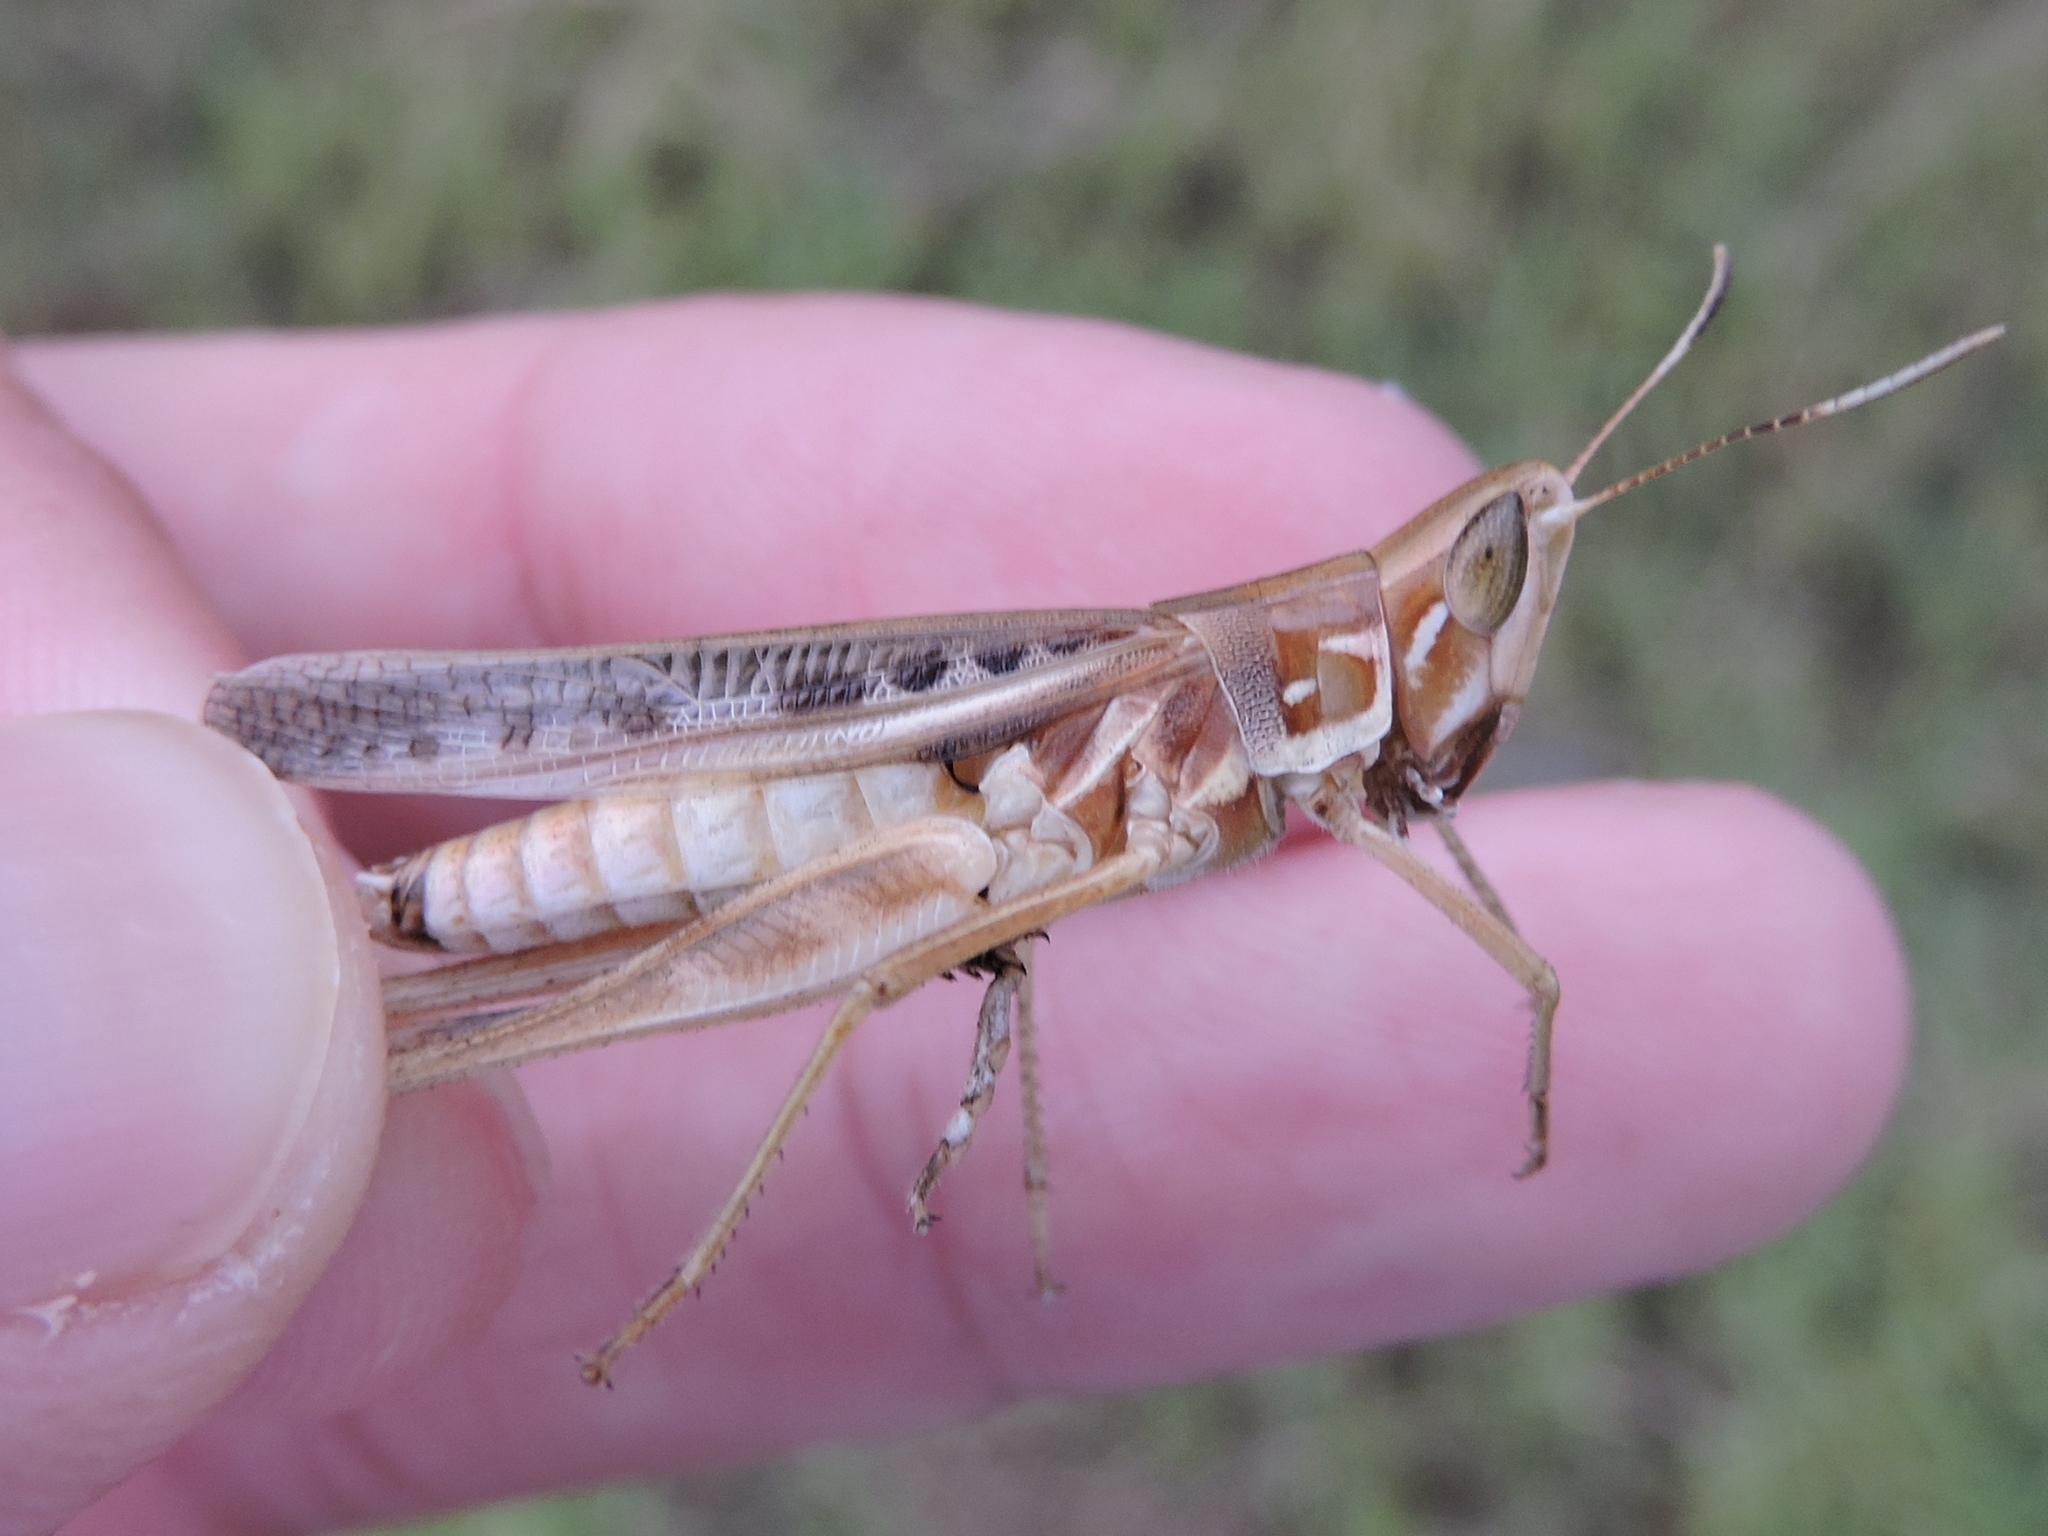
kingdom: Animalia
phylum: Arthropoda
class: Insecta
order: Orthoptera
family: Acrididae
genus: Syrbula
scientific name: Syrbula admirabilis
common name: Handsome grasshopper
